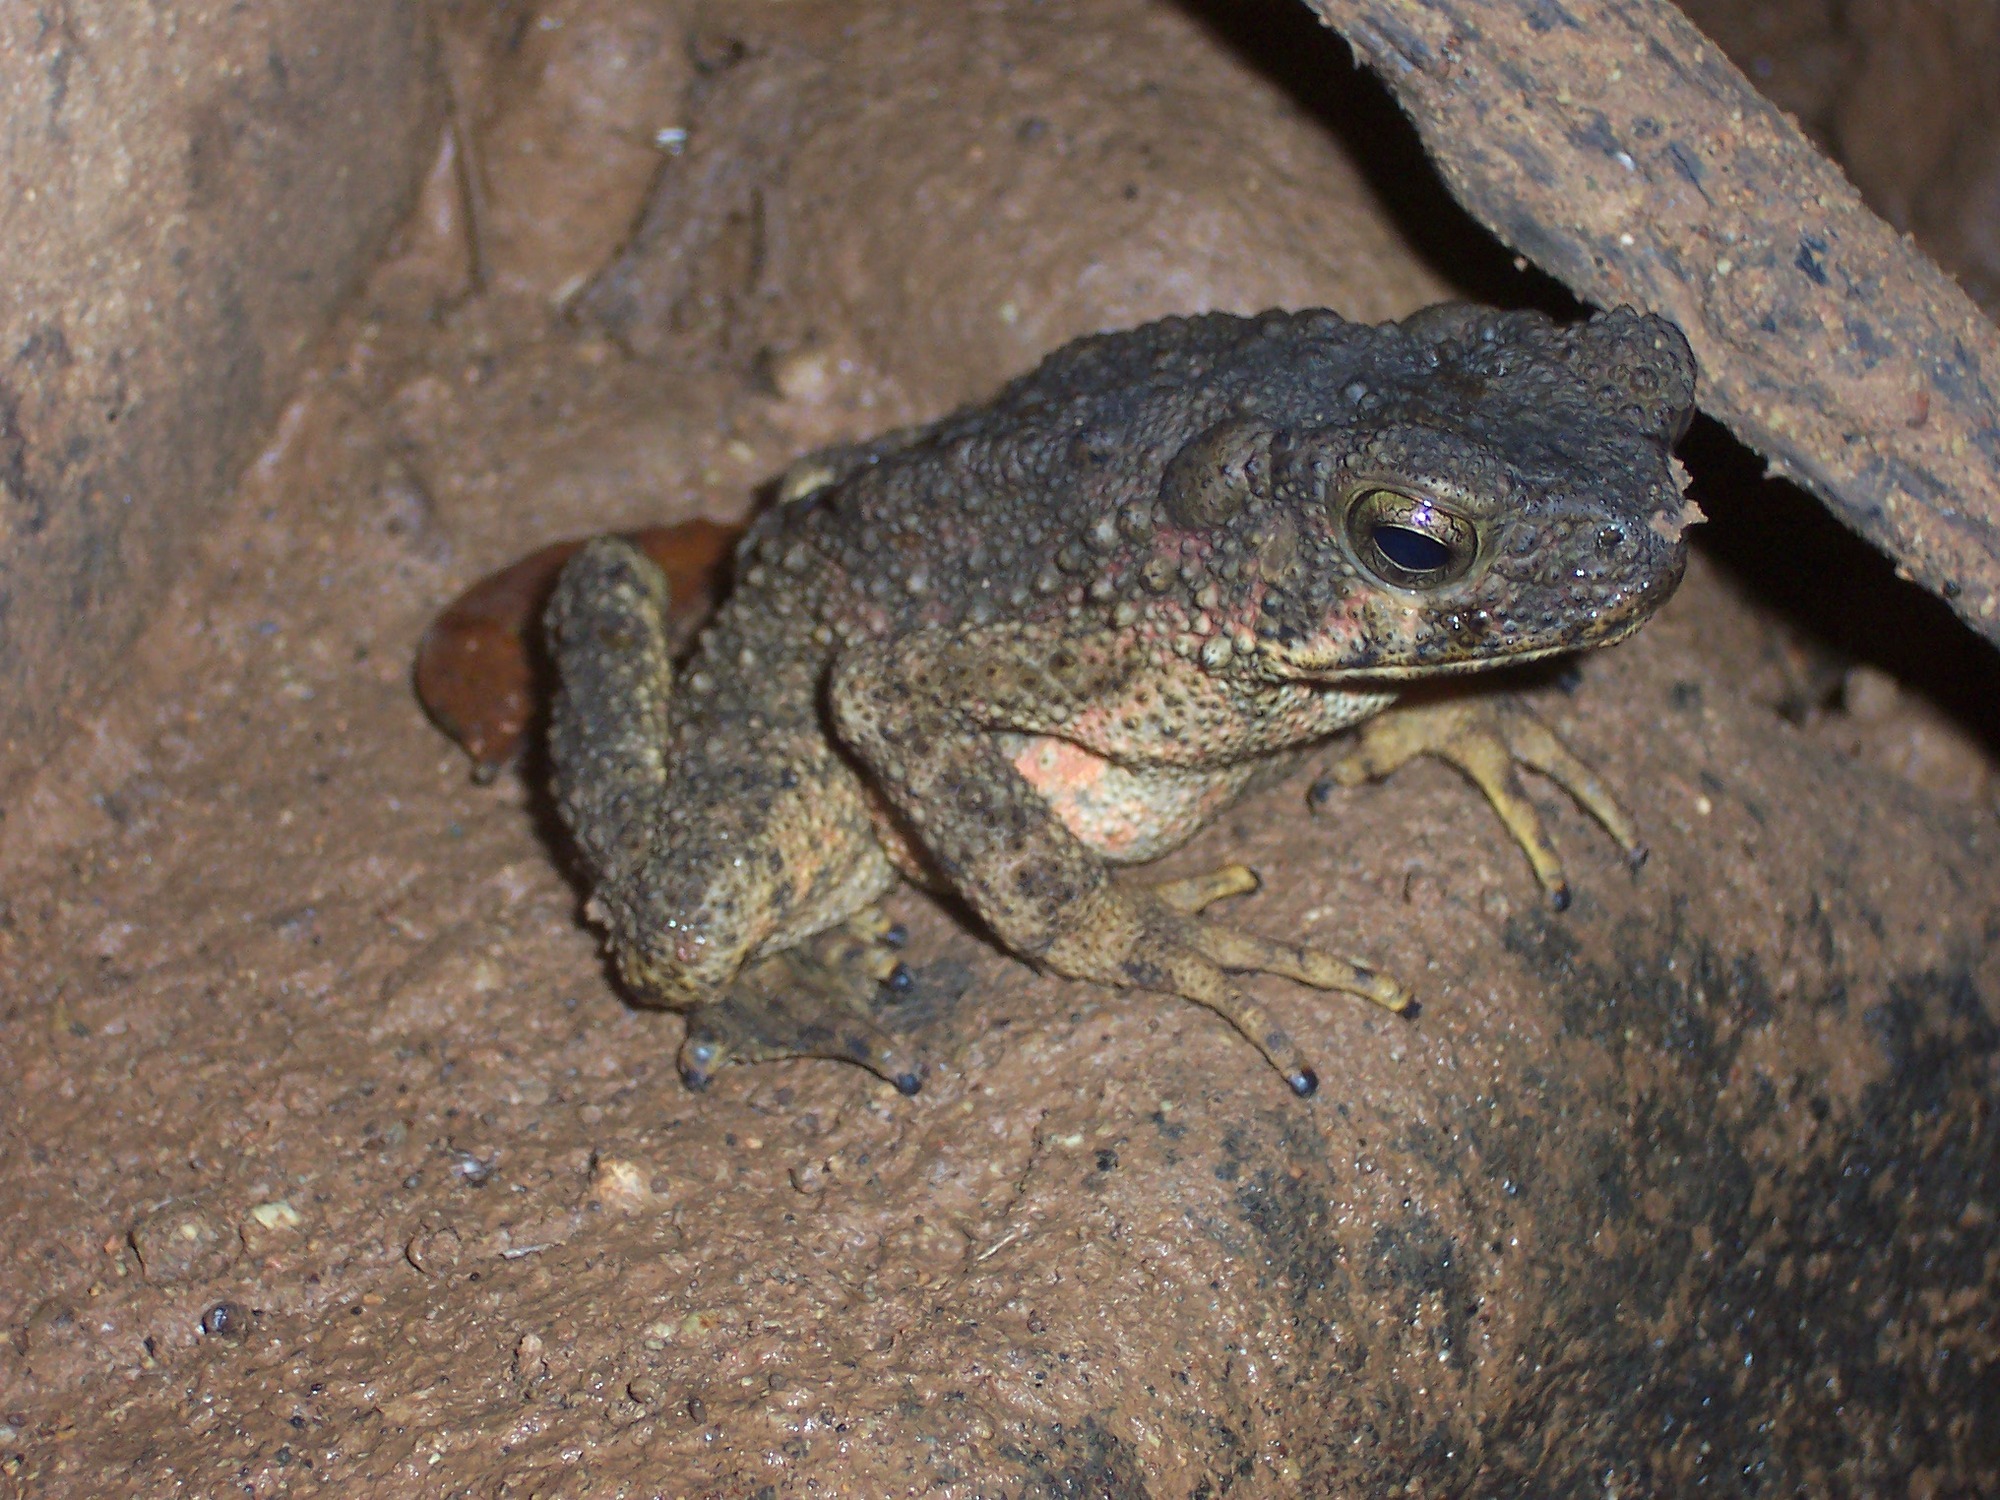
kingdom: Animalia
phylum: Chordata
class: Amphibia
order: Anura
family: Bufonidae
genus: Phrynoidis
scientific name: Phrynoidis asper
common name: Asian giant toad
